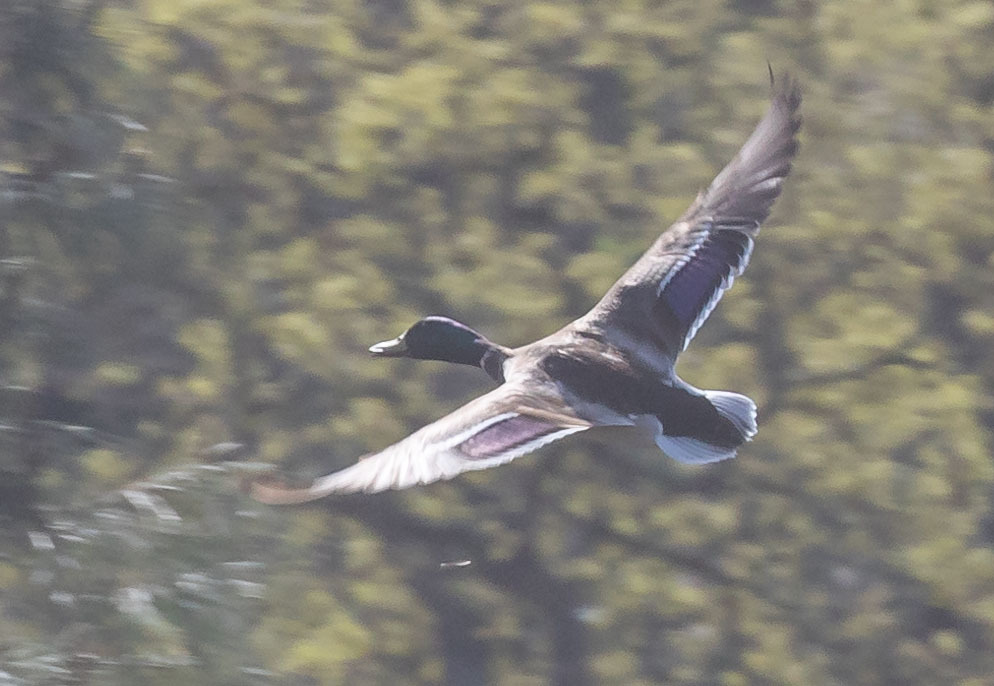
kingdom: Animalia
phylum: Chordata
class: Aves
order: Anseriformes
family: Anatidae
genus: Anas
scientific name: Anas platyrhynchos
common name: Mallard
